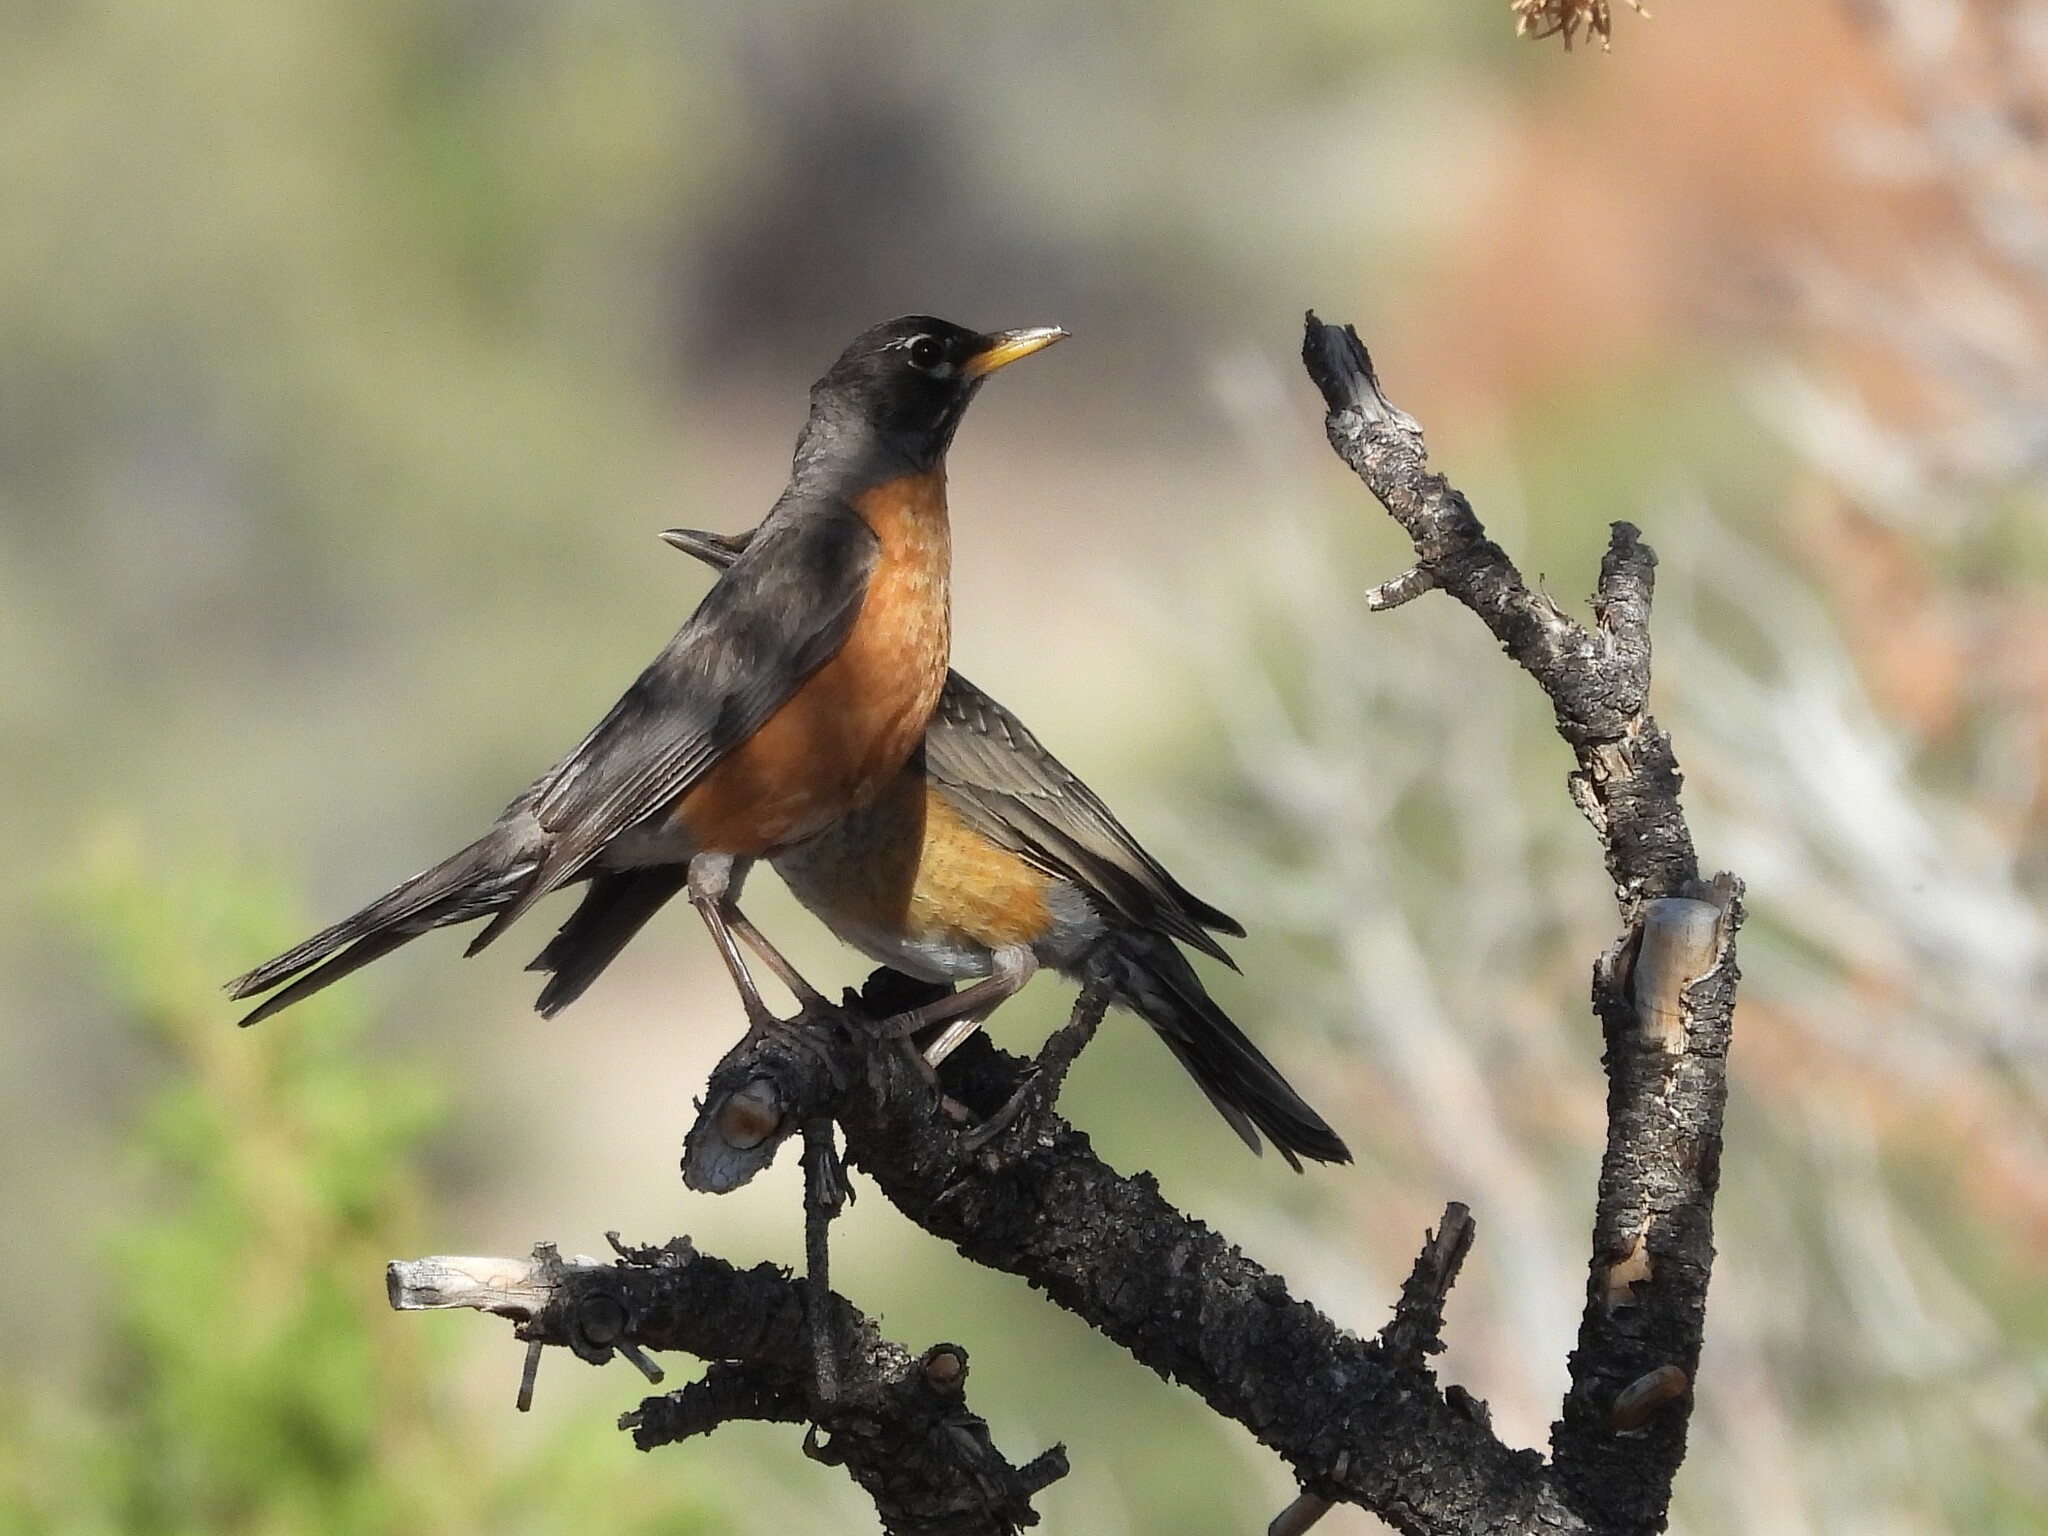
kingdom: Animalia
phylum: Chordata
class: Aves
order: Passeriformes
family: Turdidae
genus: Turdus
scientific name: Turdus migratorius
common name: American robin
